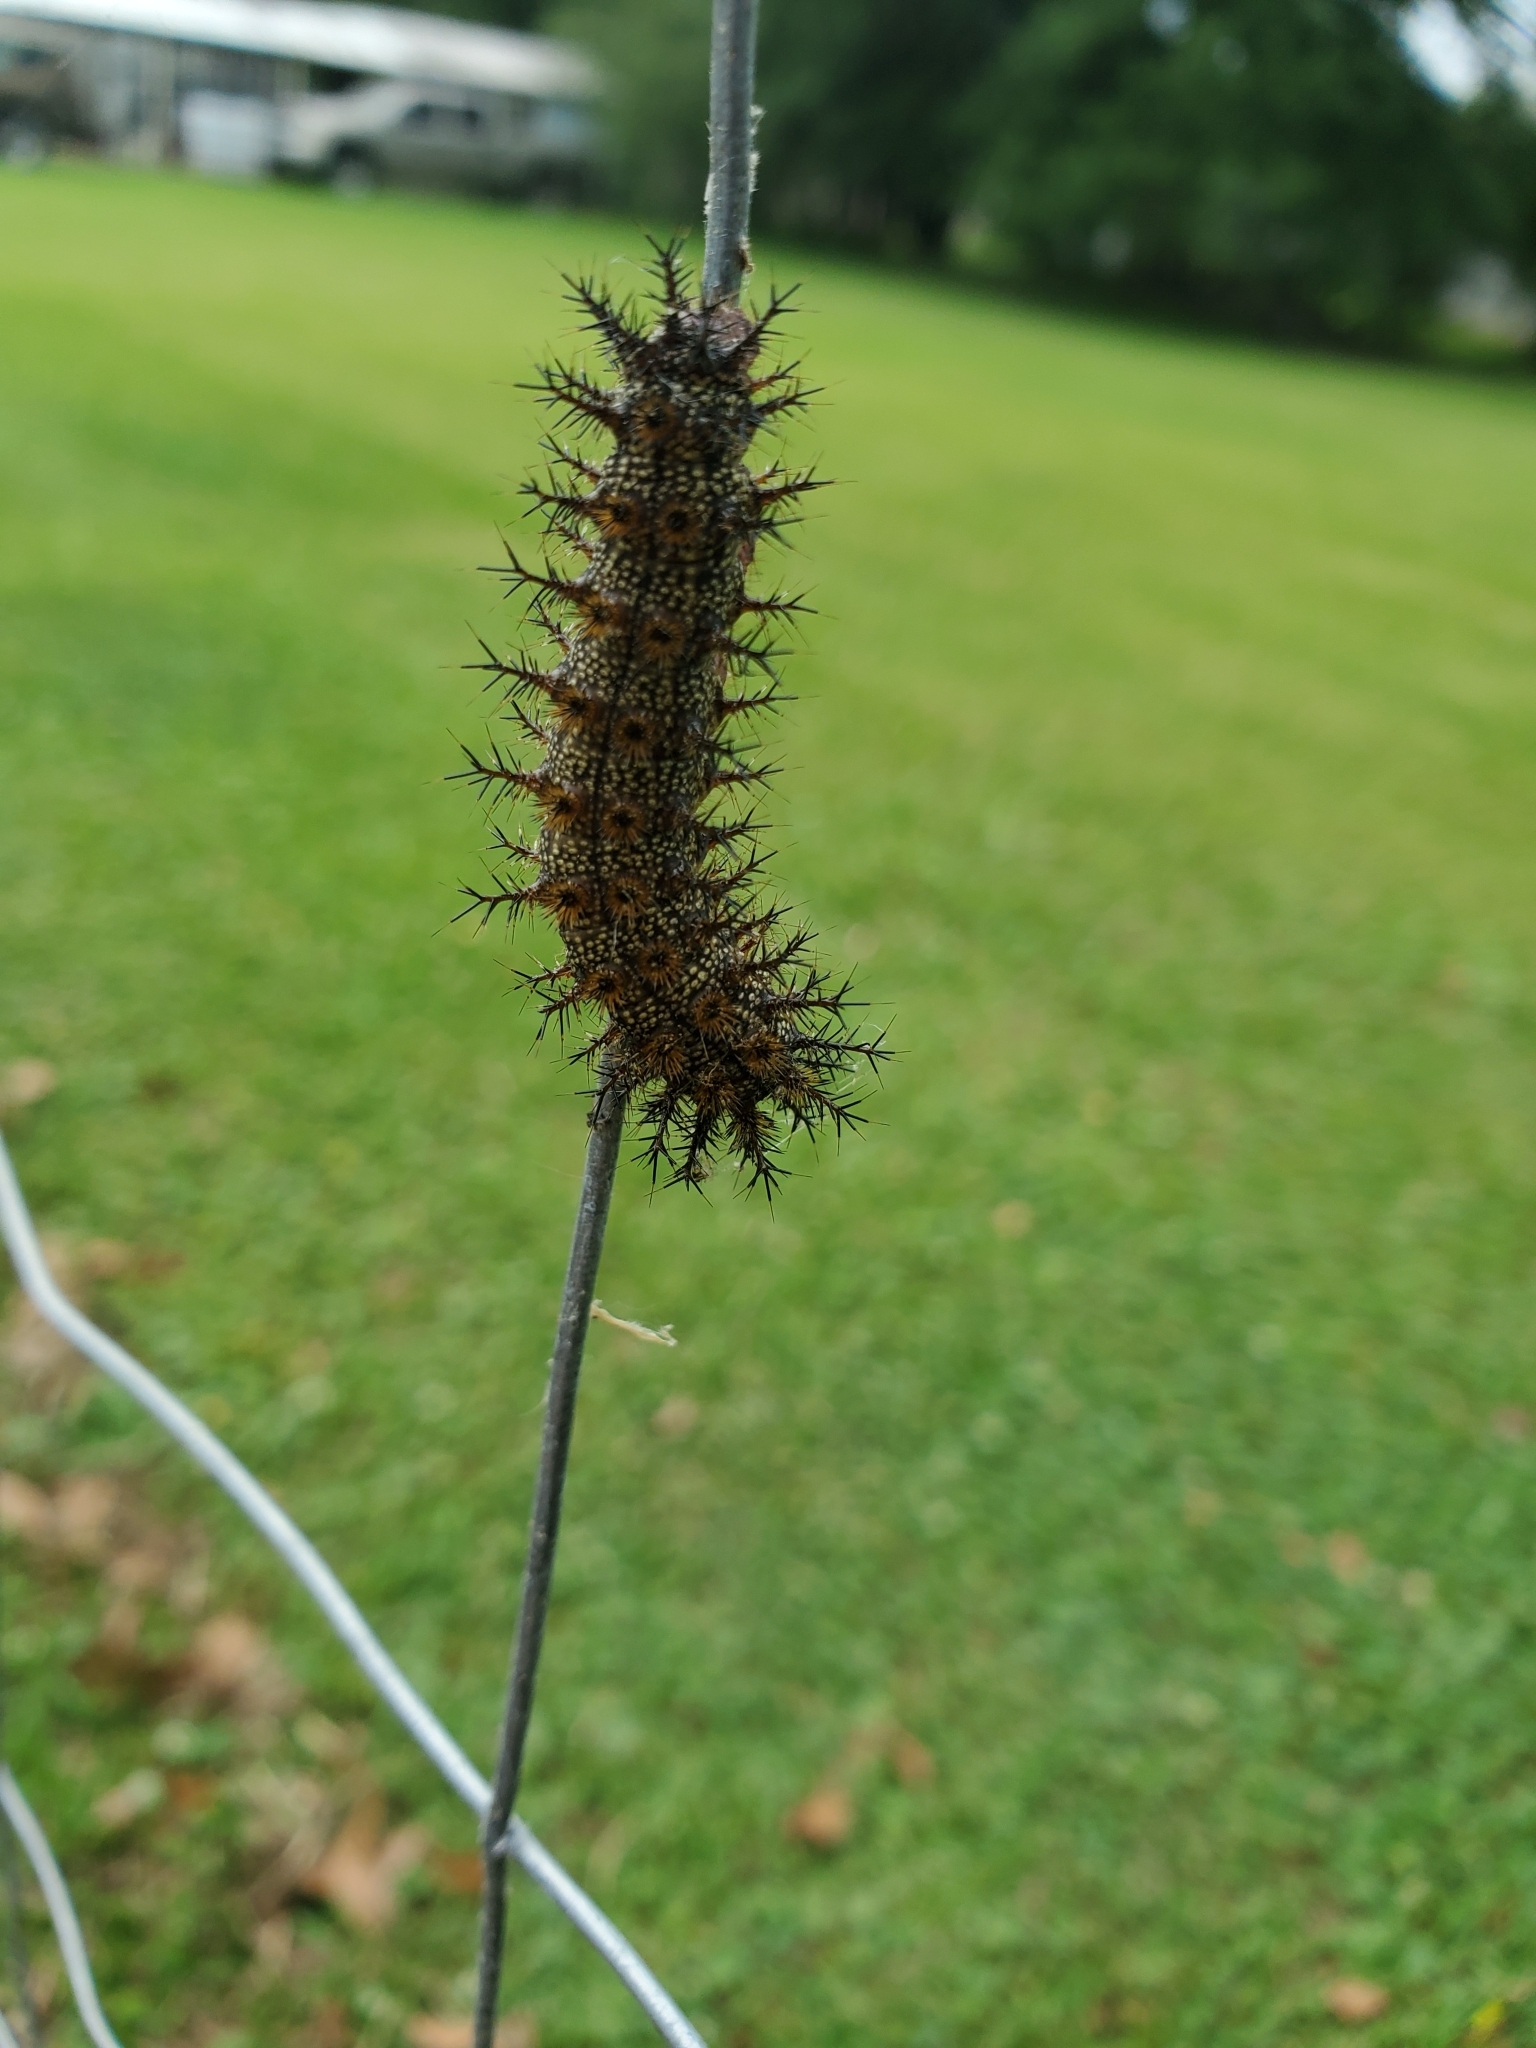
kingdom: Animalia
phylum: Arthropoda
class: Insecta
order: Lepidoptera
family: Saturniidae
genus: Hemileuca
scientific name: Hemileuca maia
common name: Eastern buckmoth
